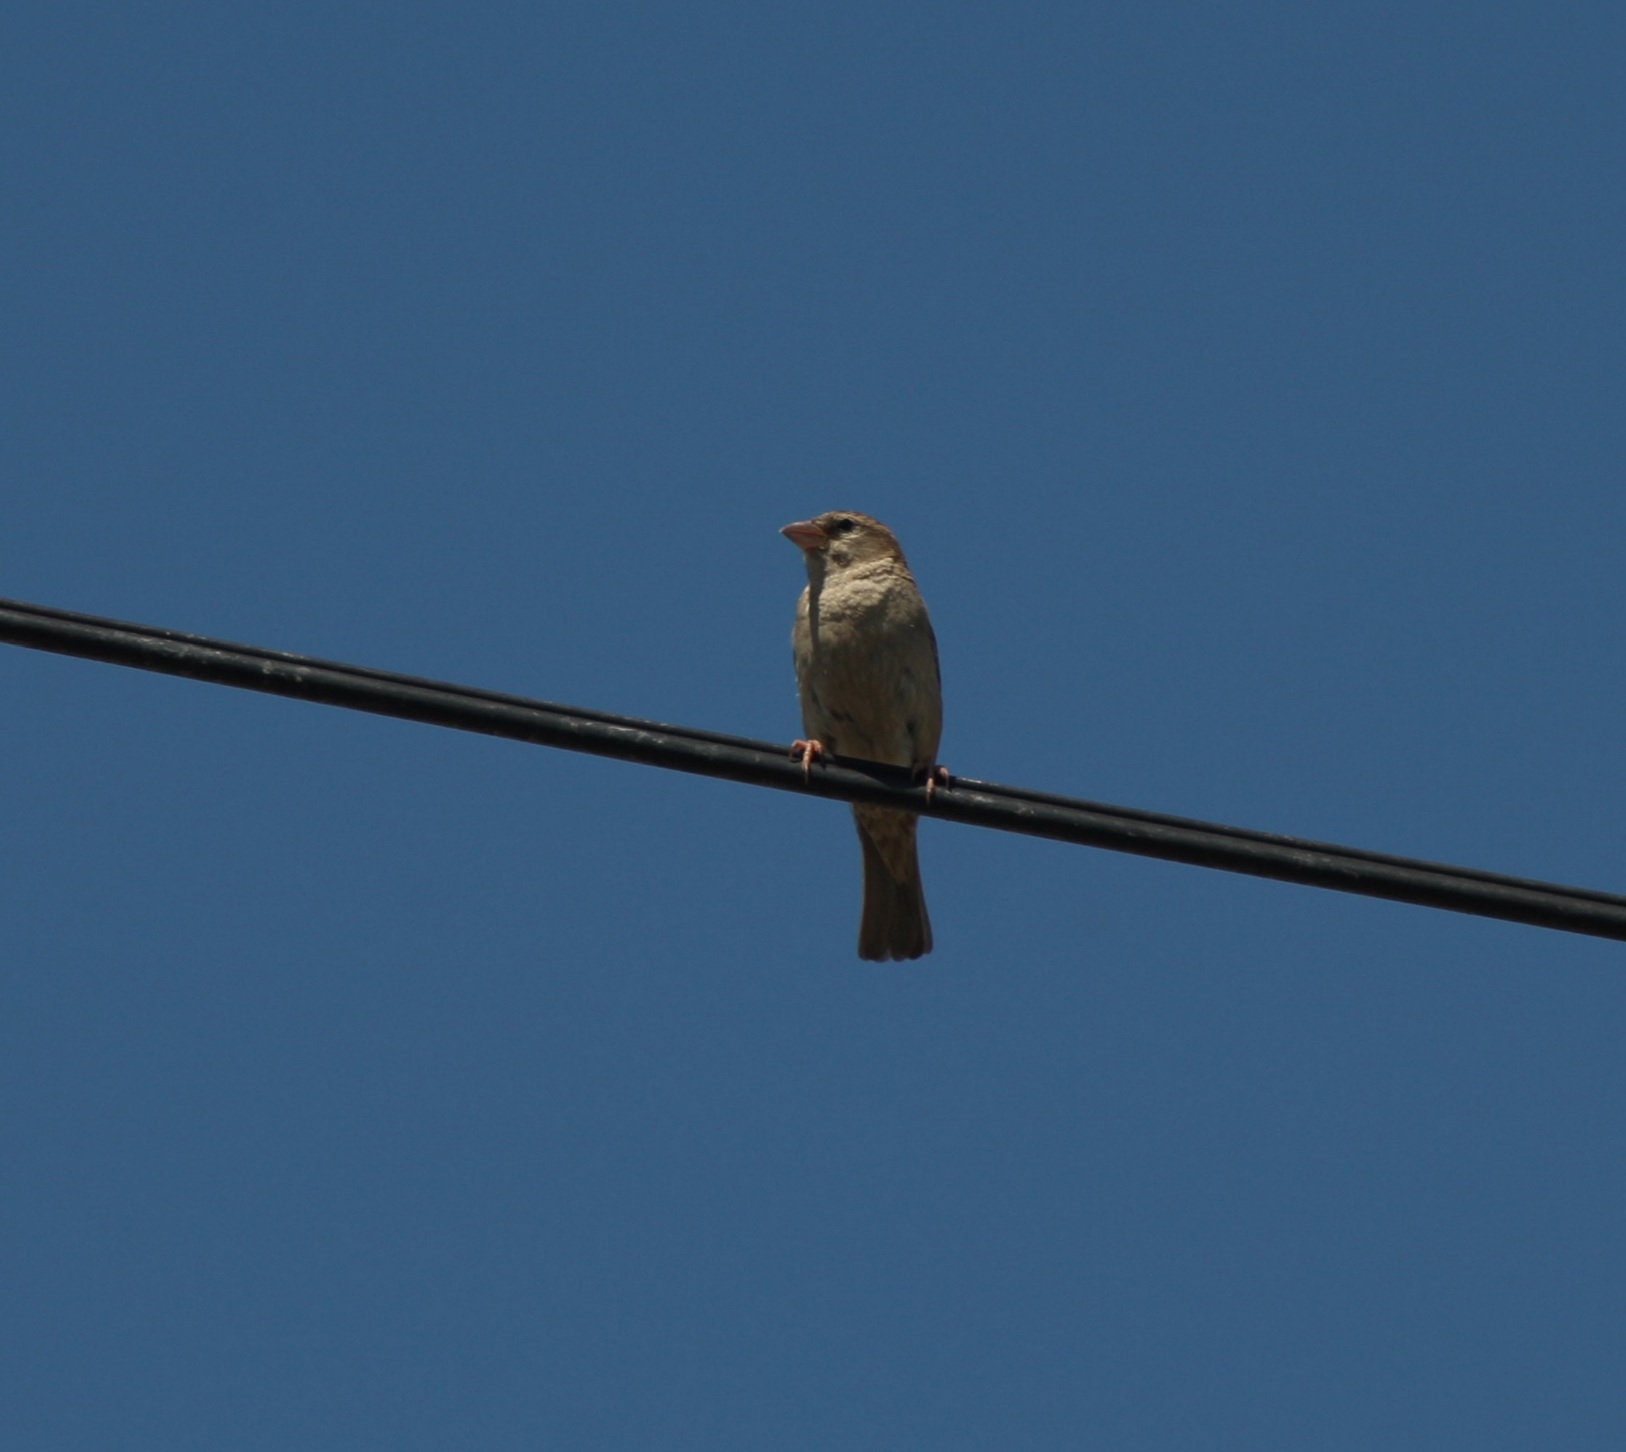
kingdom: Animalia
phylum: Chordata
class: Aves
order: Passeriformes
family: Passeridae
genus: Passer
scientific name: Passer domesticus
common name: House sparrow
